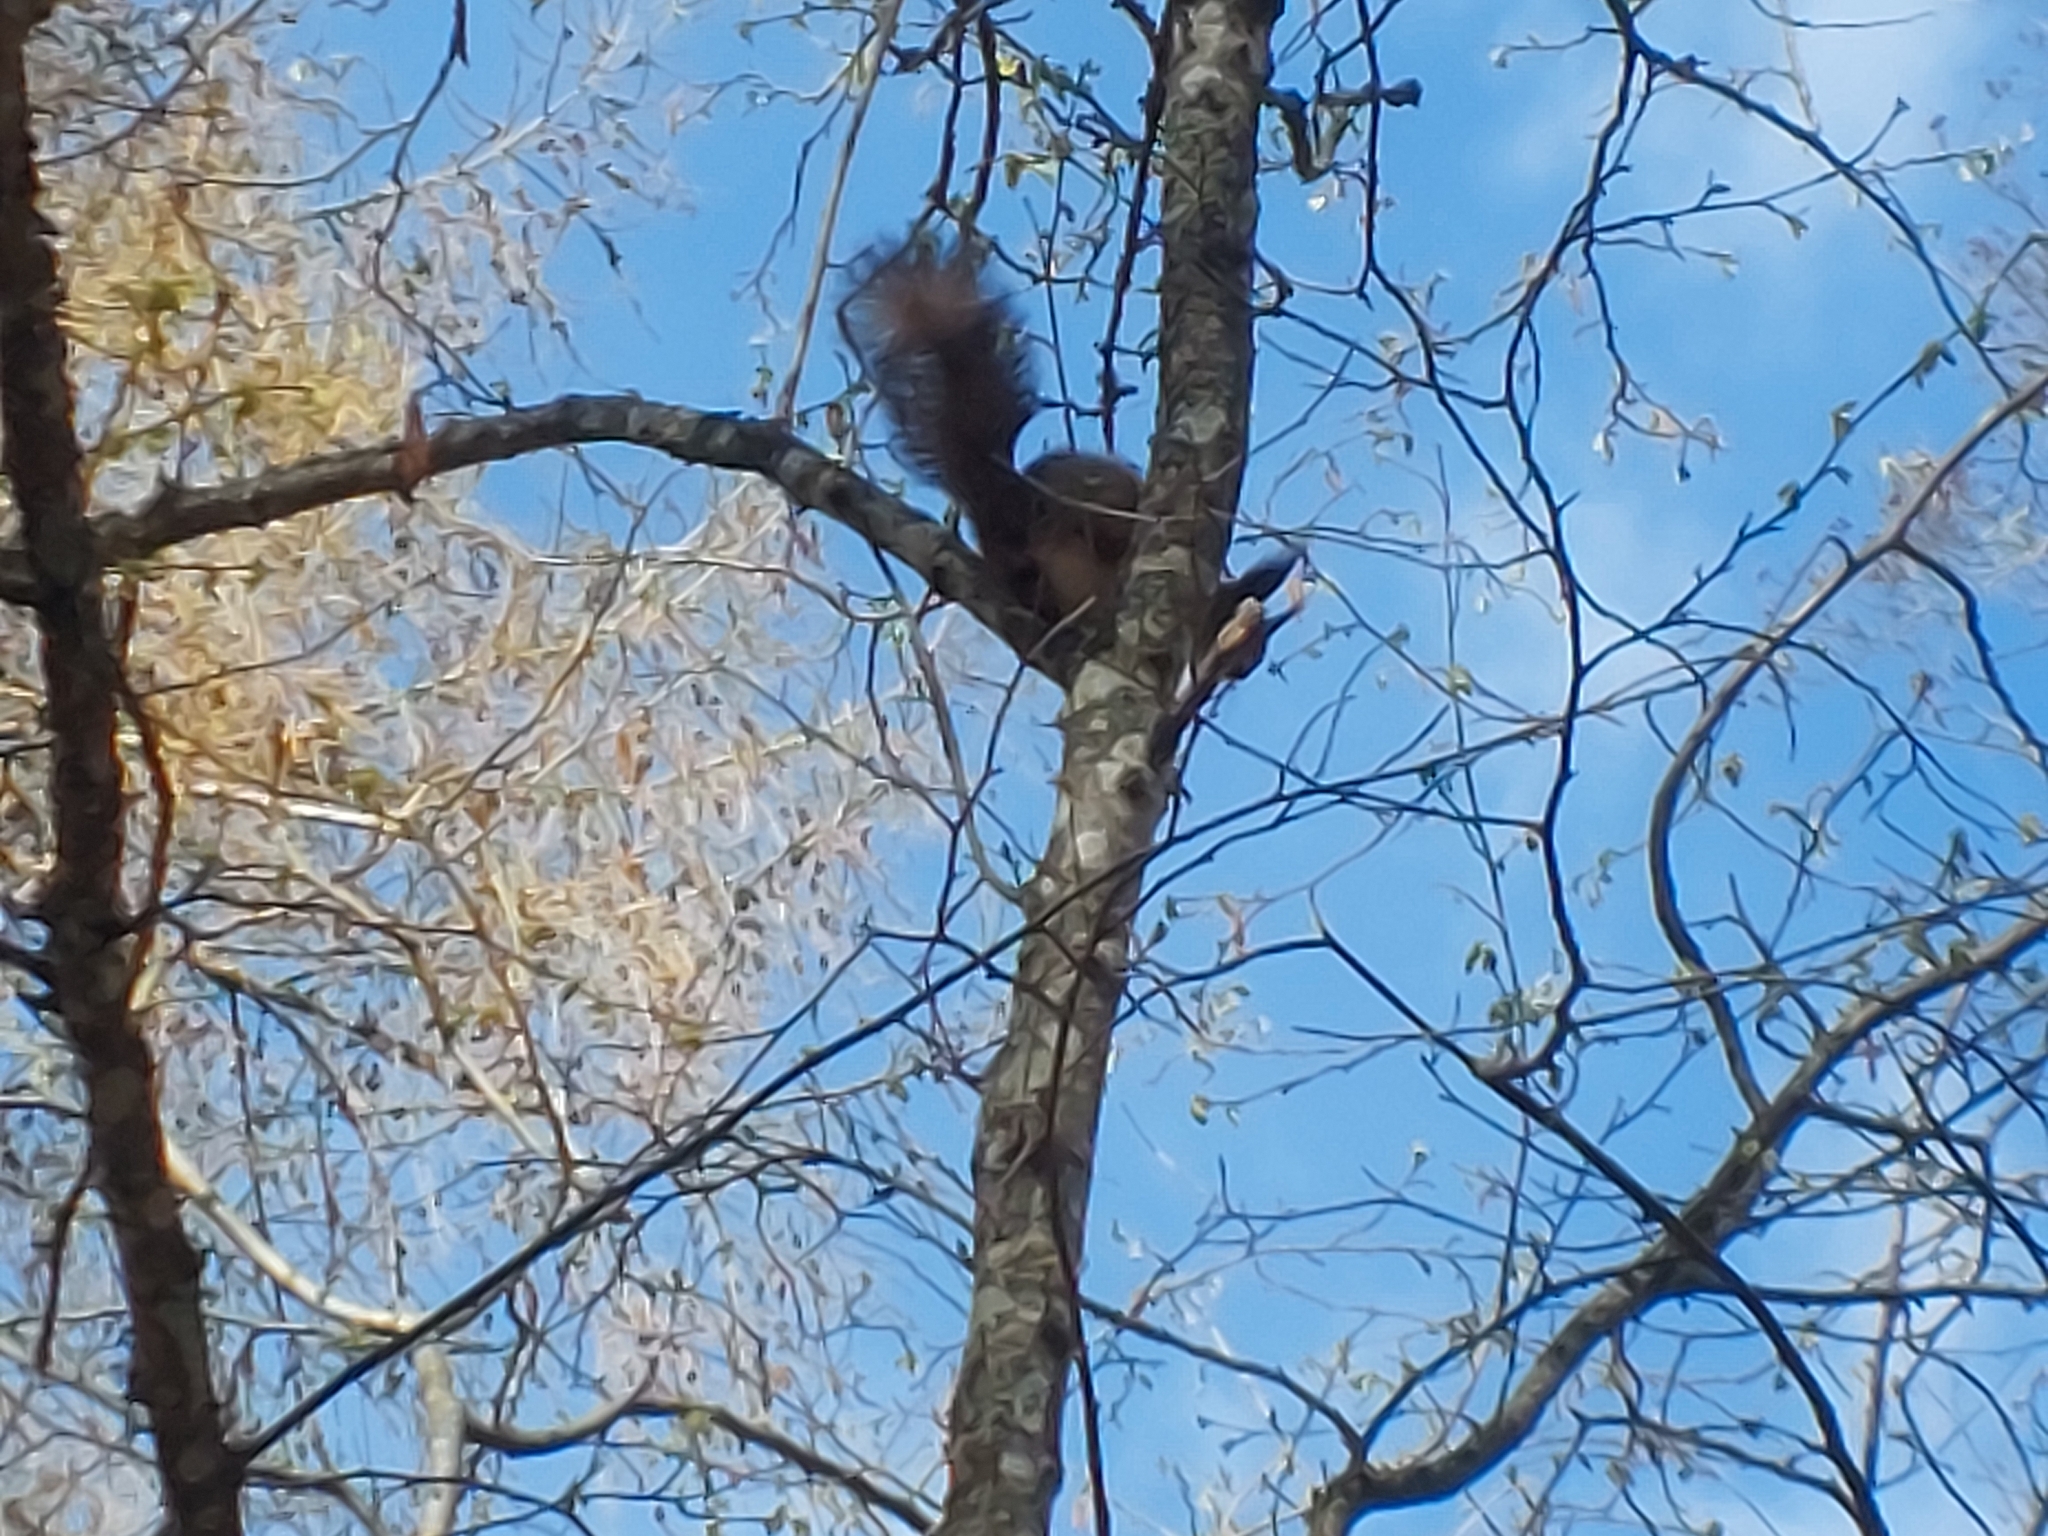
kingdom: Animalia
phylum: Chordata
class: Mammalia
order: Rodentia
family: Sciuridae
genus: Sciurus
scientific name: Sciurus vulgaris
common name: Eurasian red squirrel
